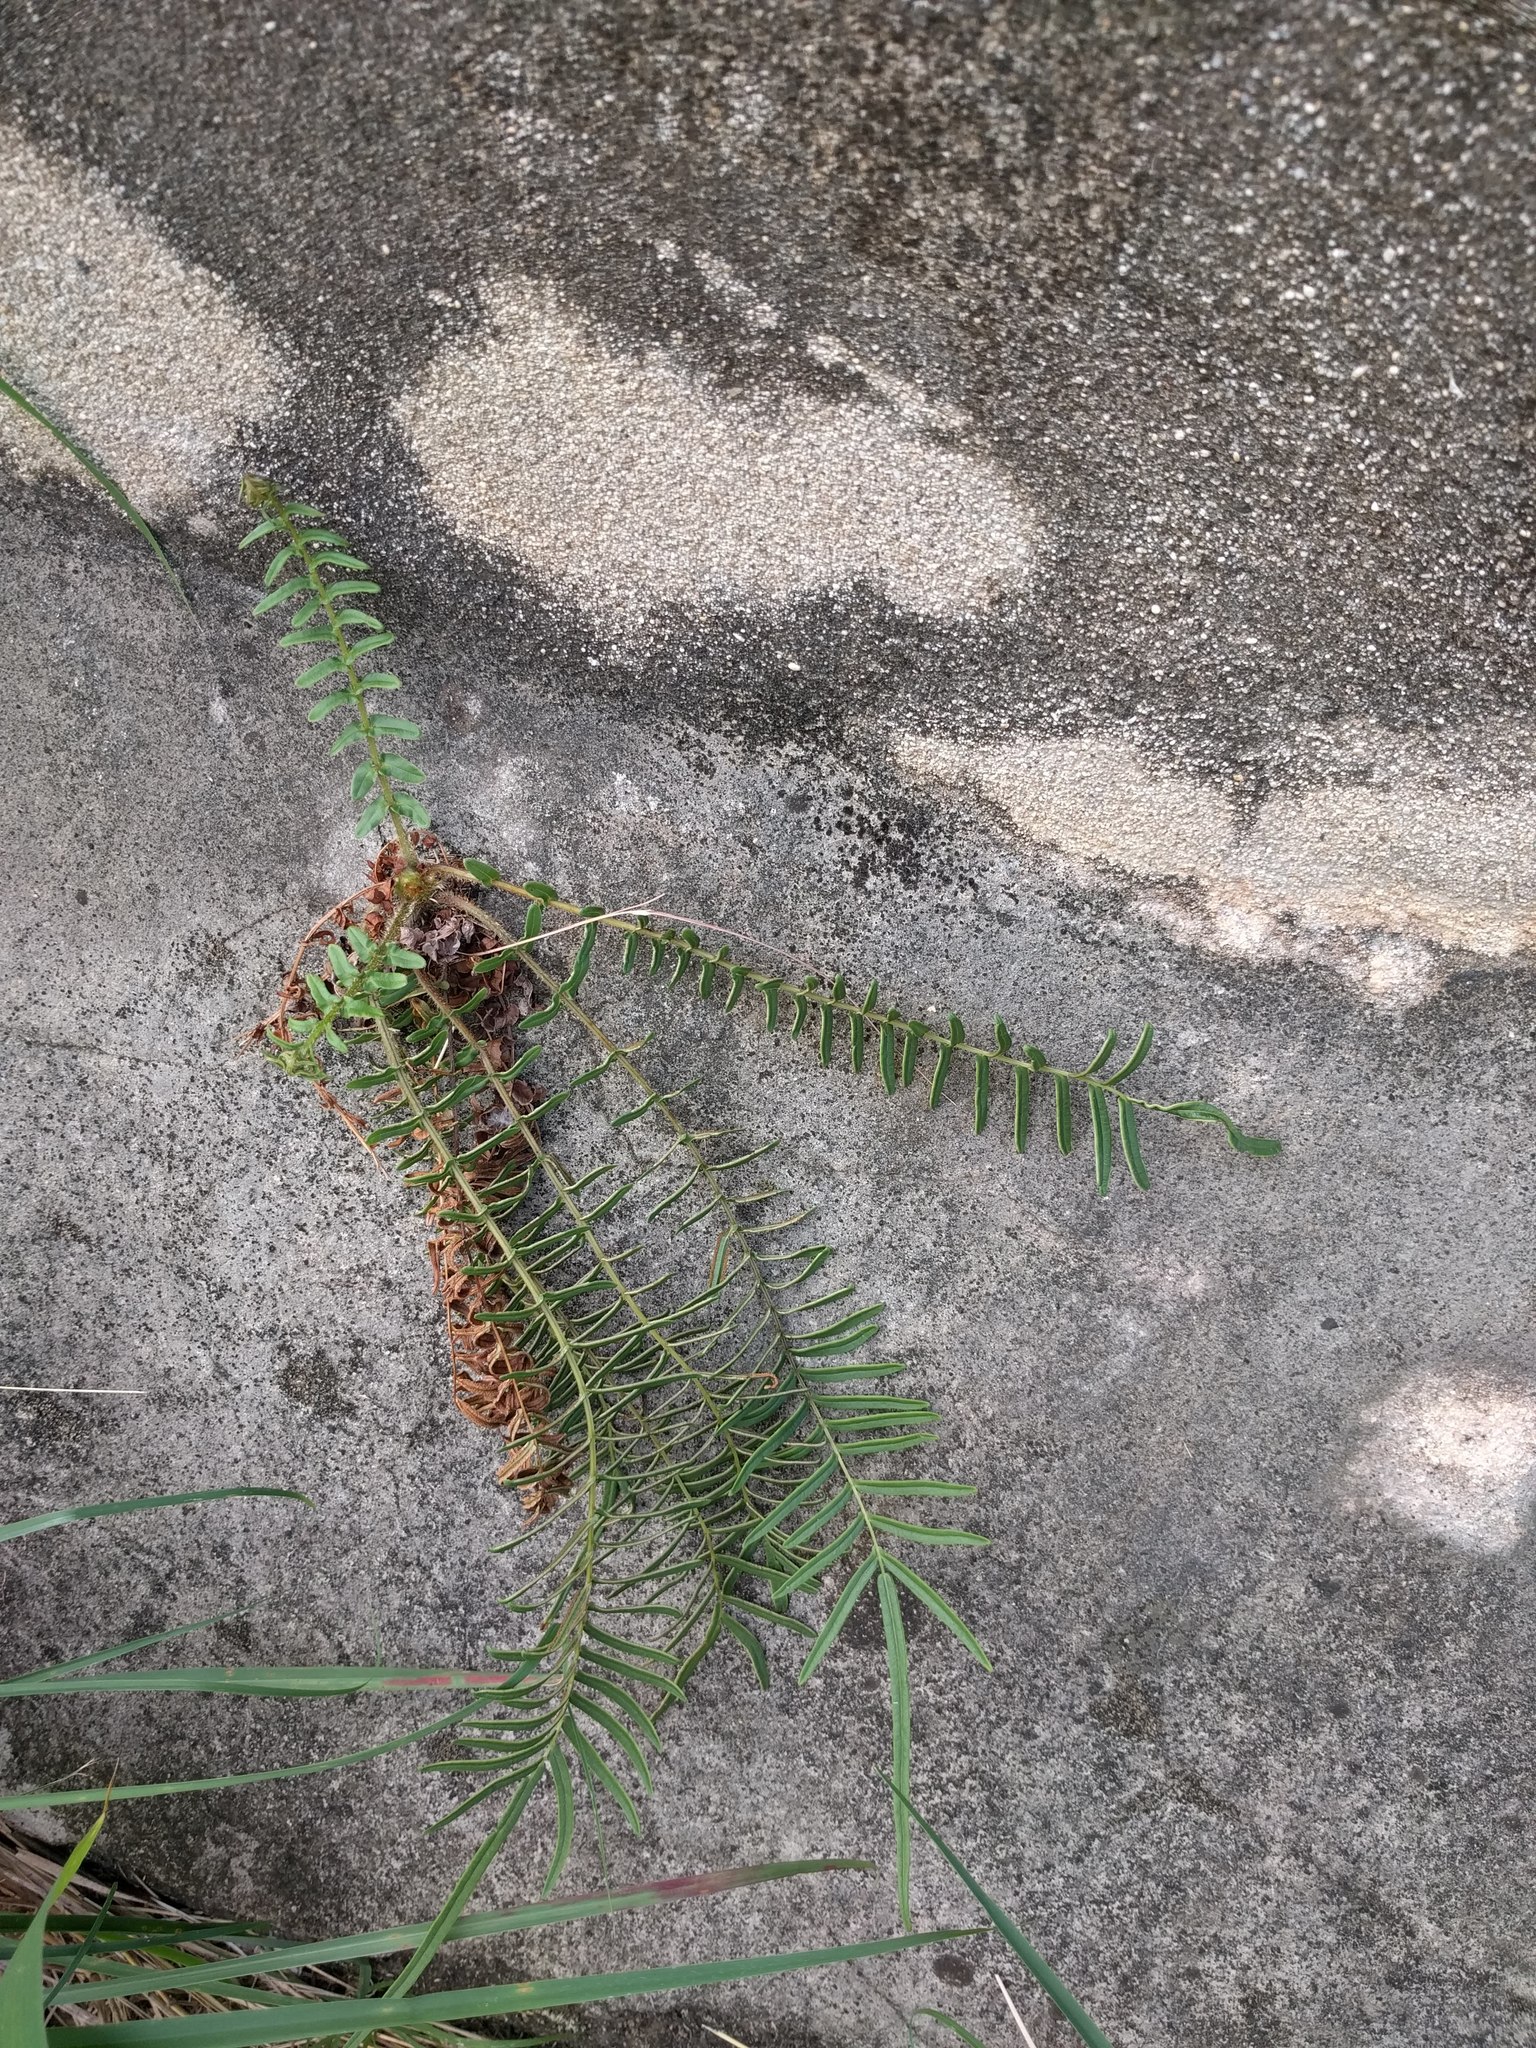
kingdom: Plantae
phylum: Tracheophyta
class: Polypodiopsida
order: Polypodiales
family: Pteridaceae
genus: Pteris
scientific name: Pteris vittata
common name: Ladder brake
